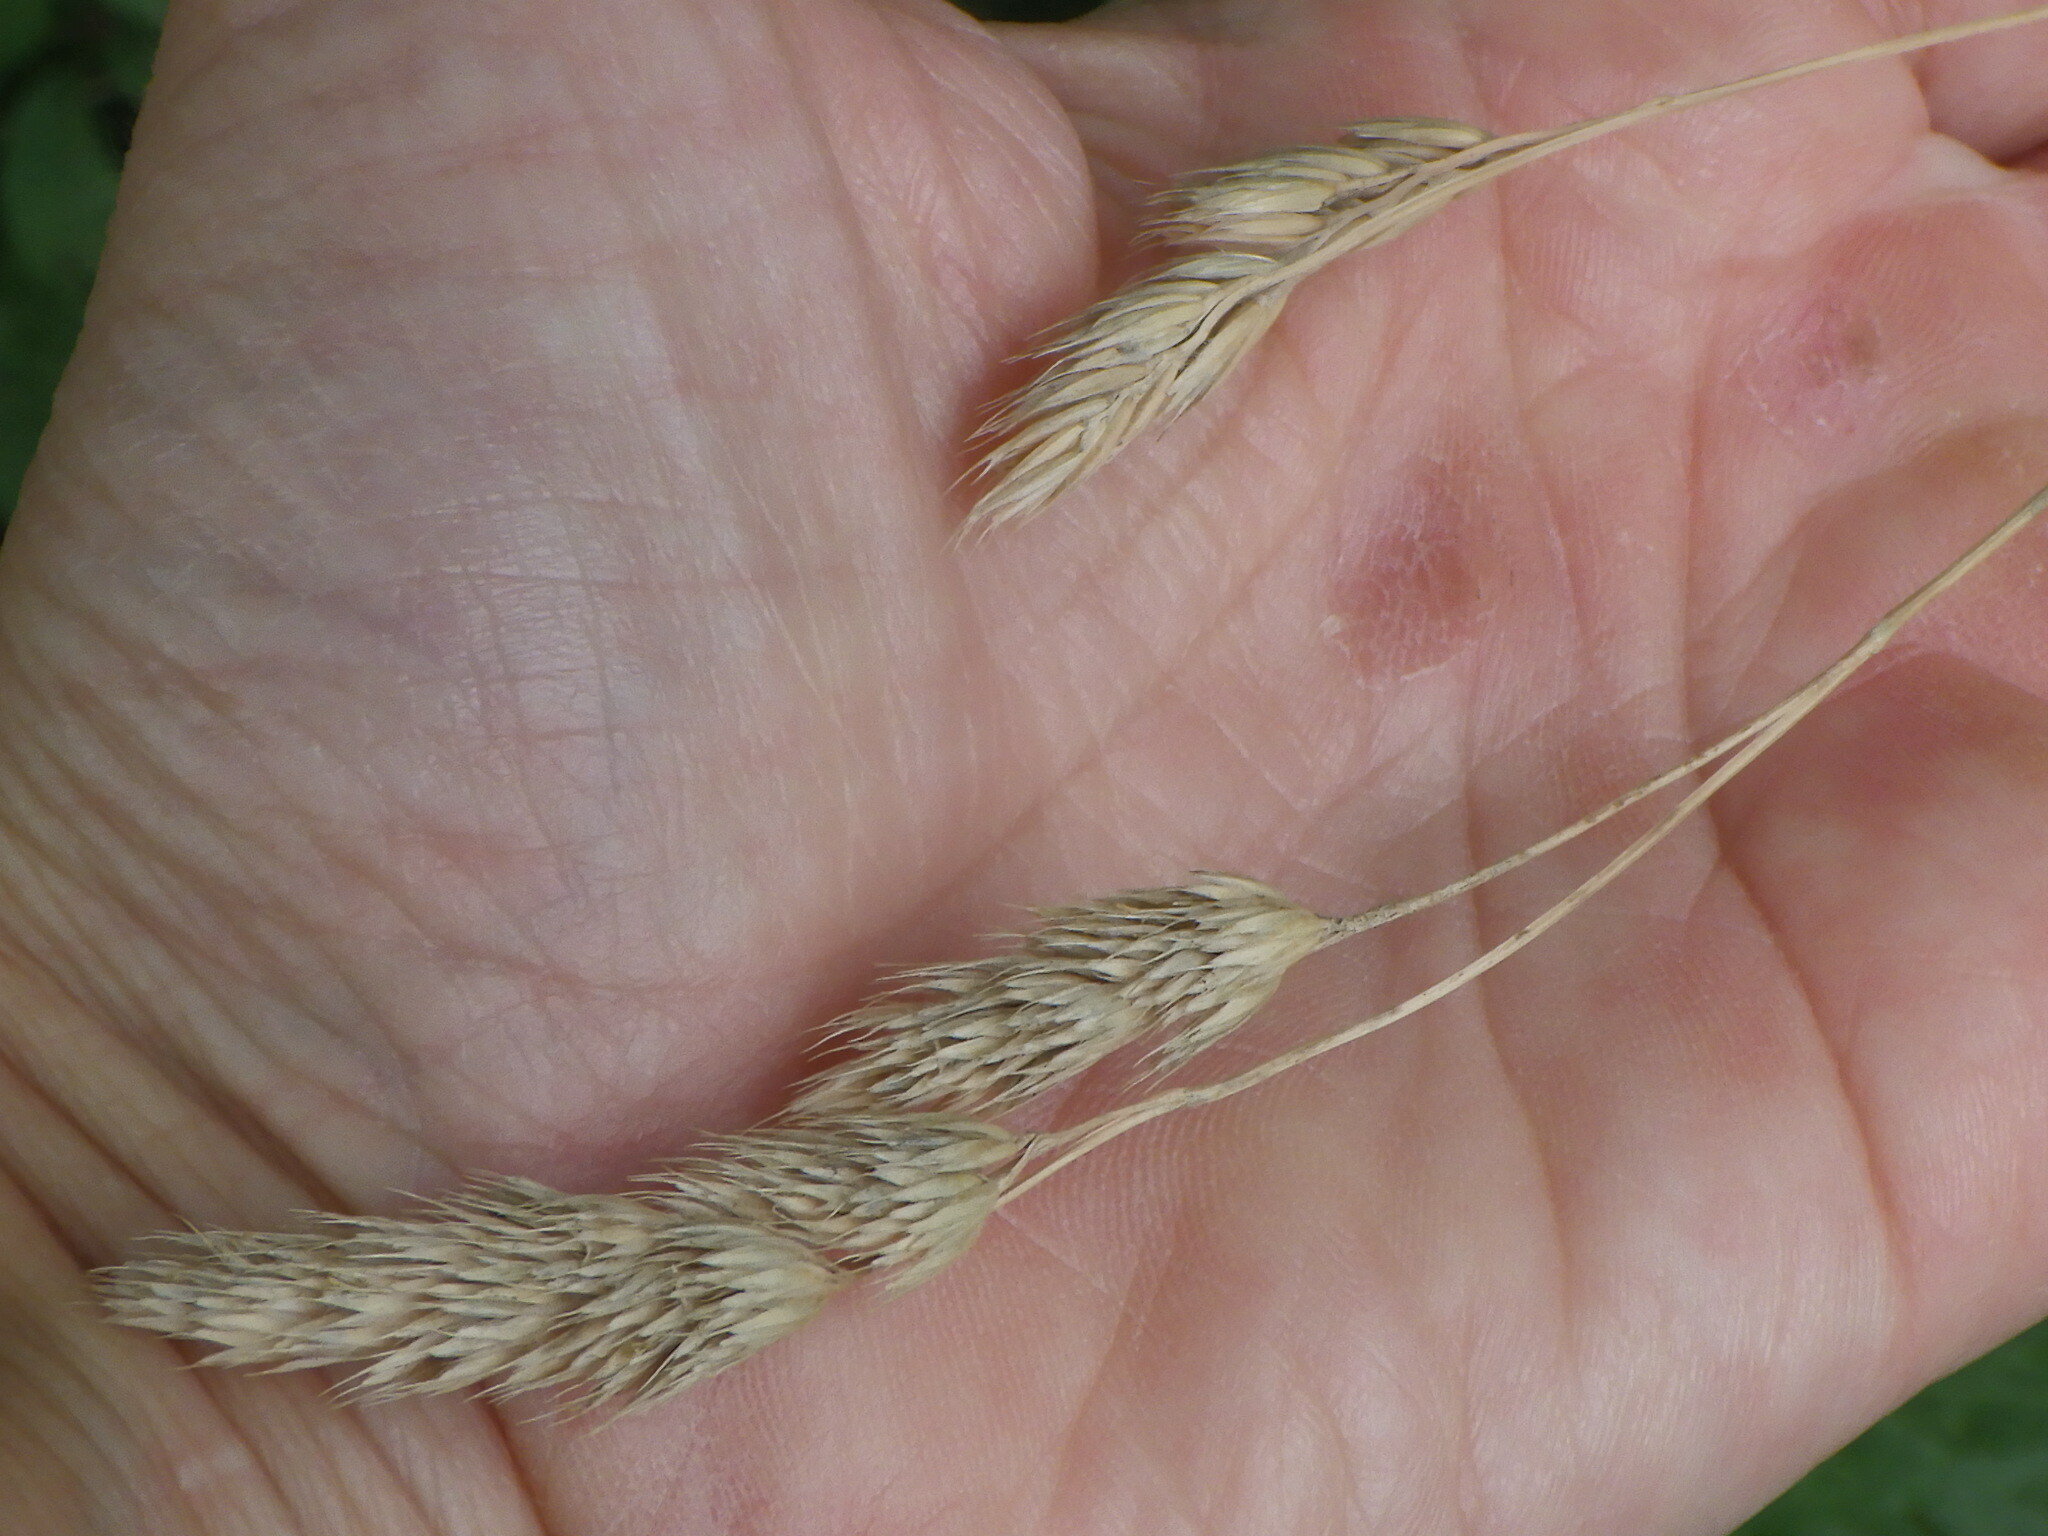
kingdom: Plantae
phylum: Tracheophyta
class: Liliopsida
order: Poales
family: Poaceae
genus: Dactylis
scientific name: Dactylis glomerata
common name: Orchardgrass
